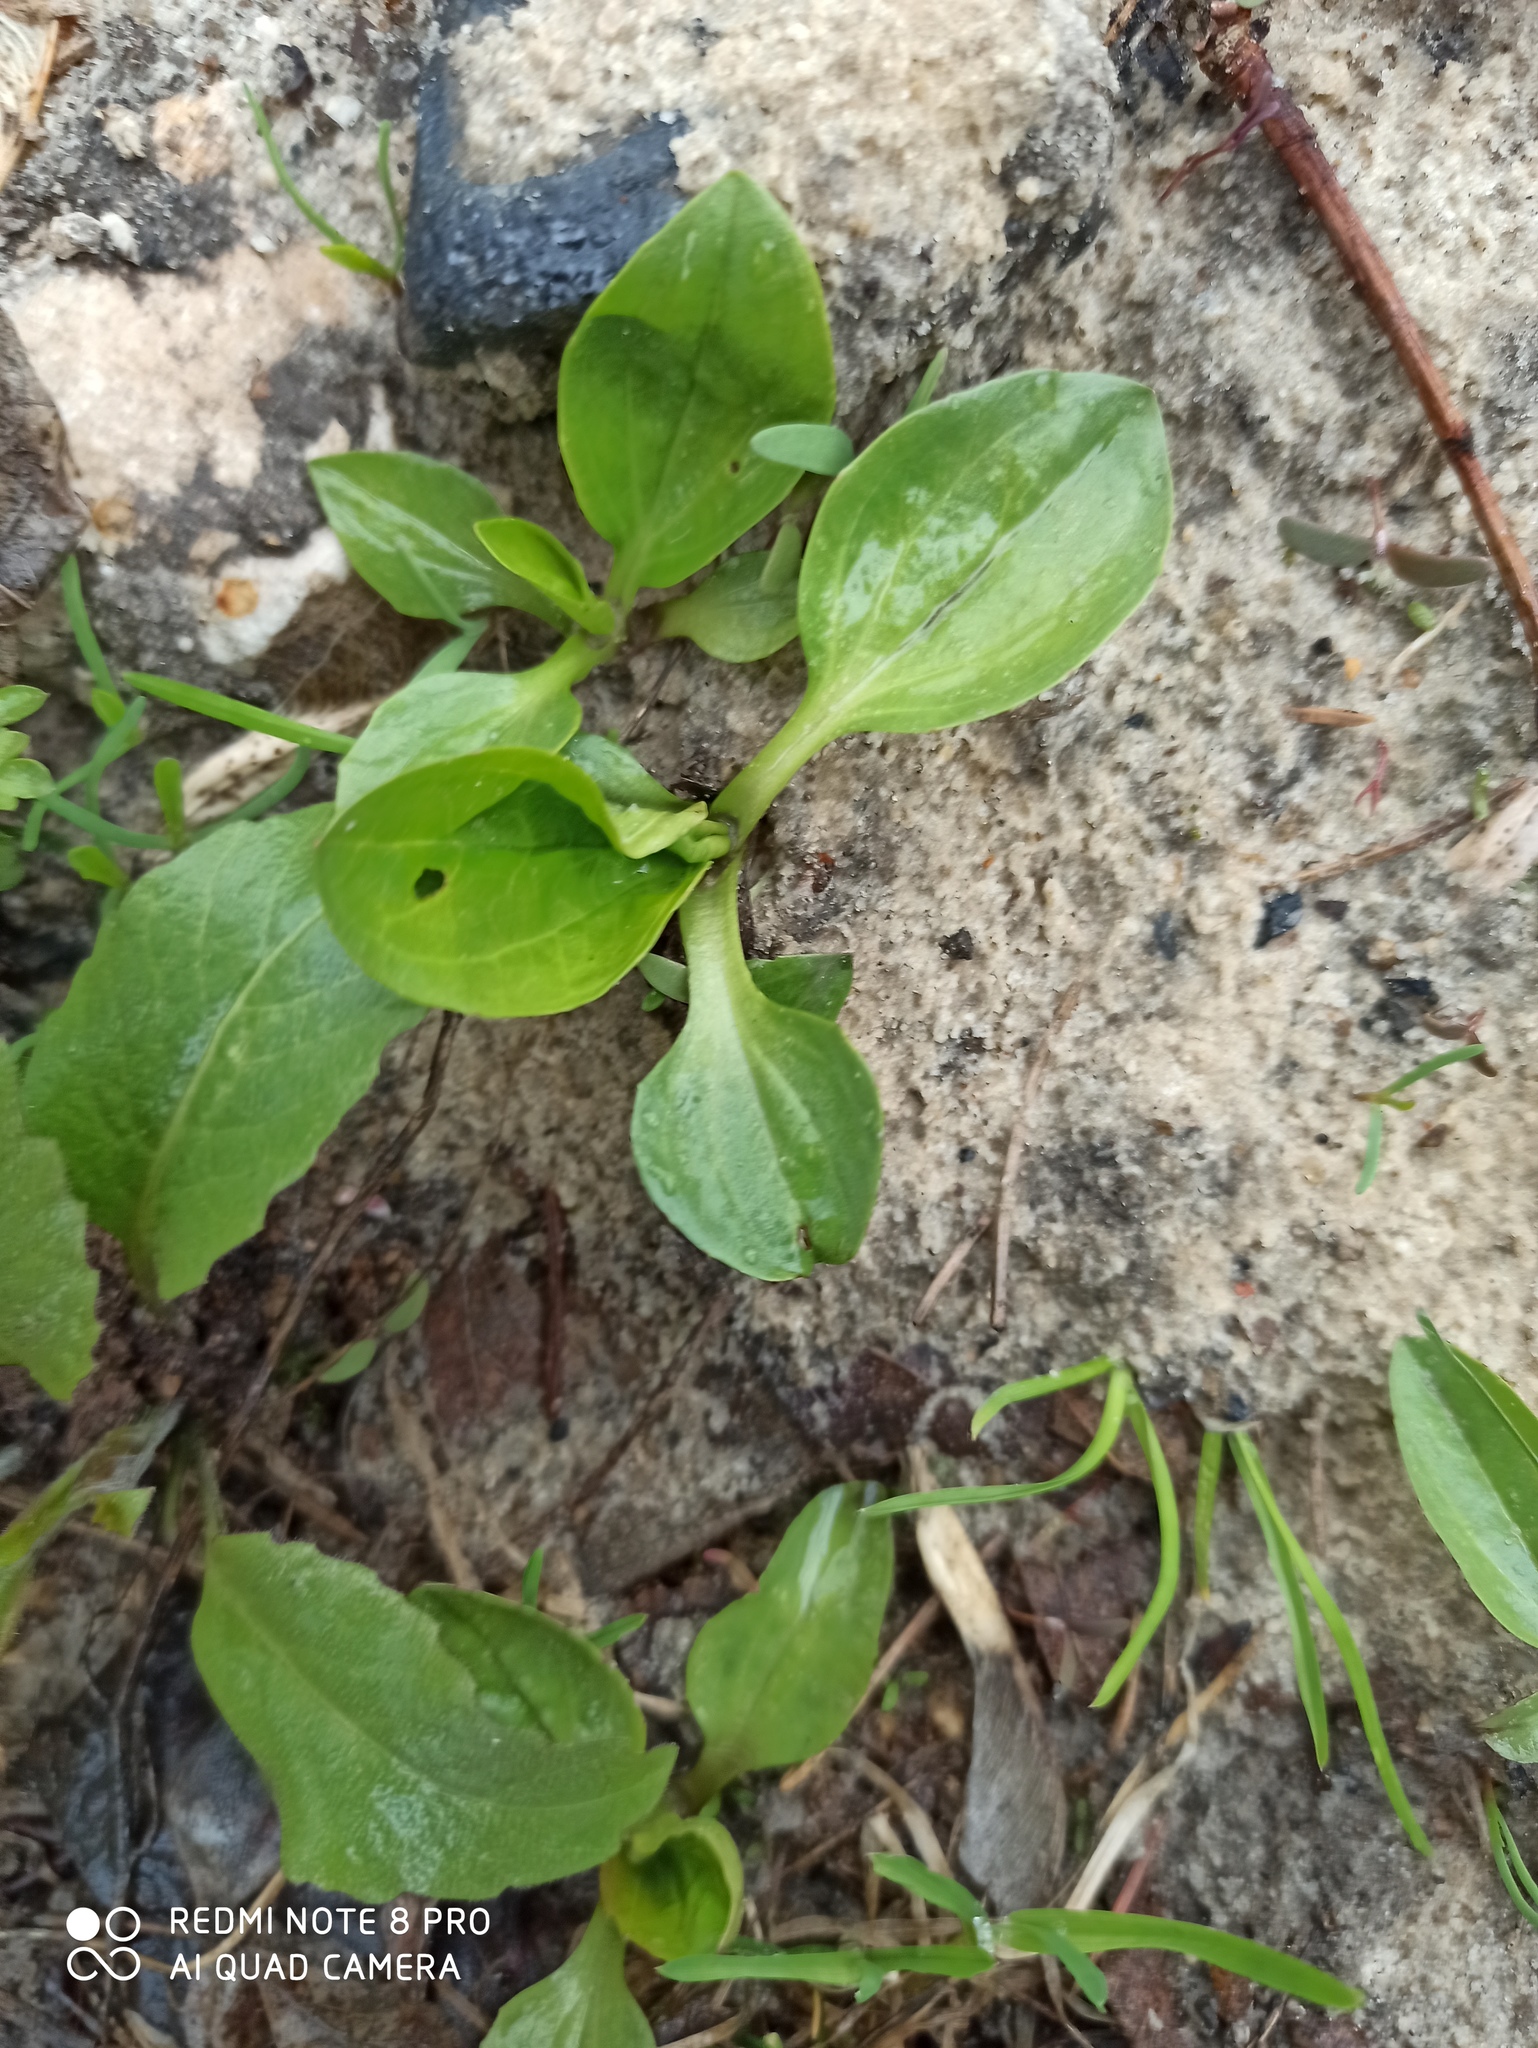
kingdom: Plantae
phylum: Tracheophyta
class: Magnoliopsida
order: Lamiales
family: Plantaginaceae
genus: Plantago
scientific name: Plantago major
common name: Common plantain
